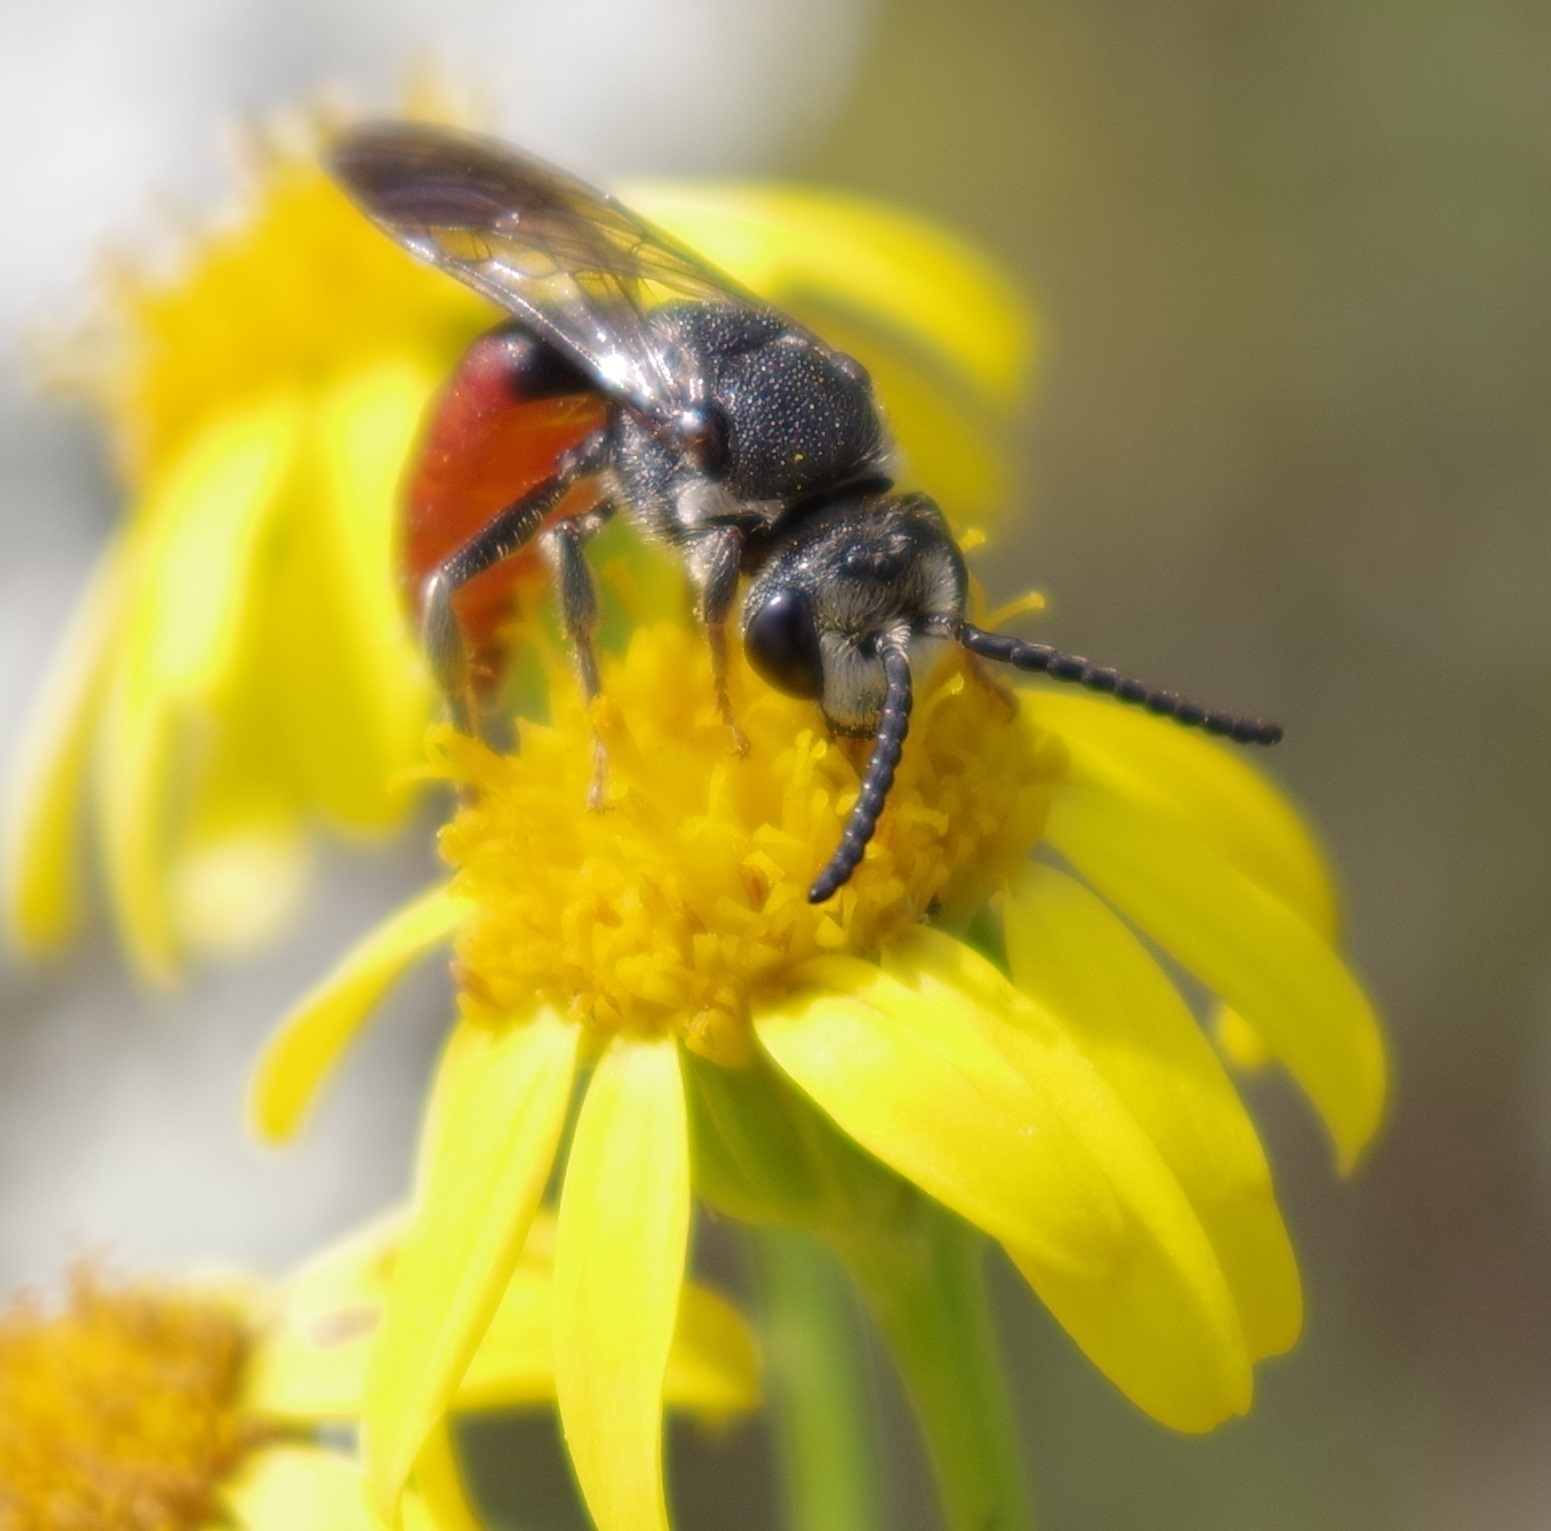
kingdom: Animalia
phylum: Arthropoda
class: Insecta
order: Hymenoptera
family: Halictidae
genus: Sphecodes
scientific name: Sphecodes albilabris
